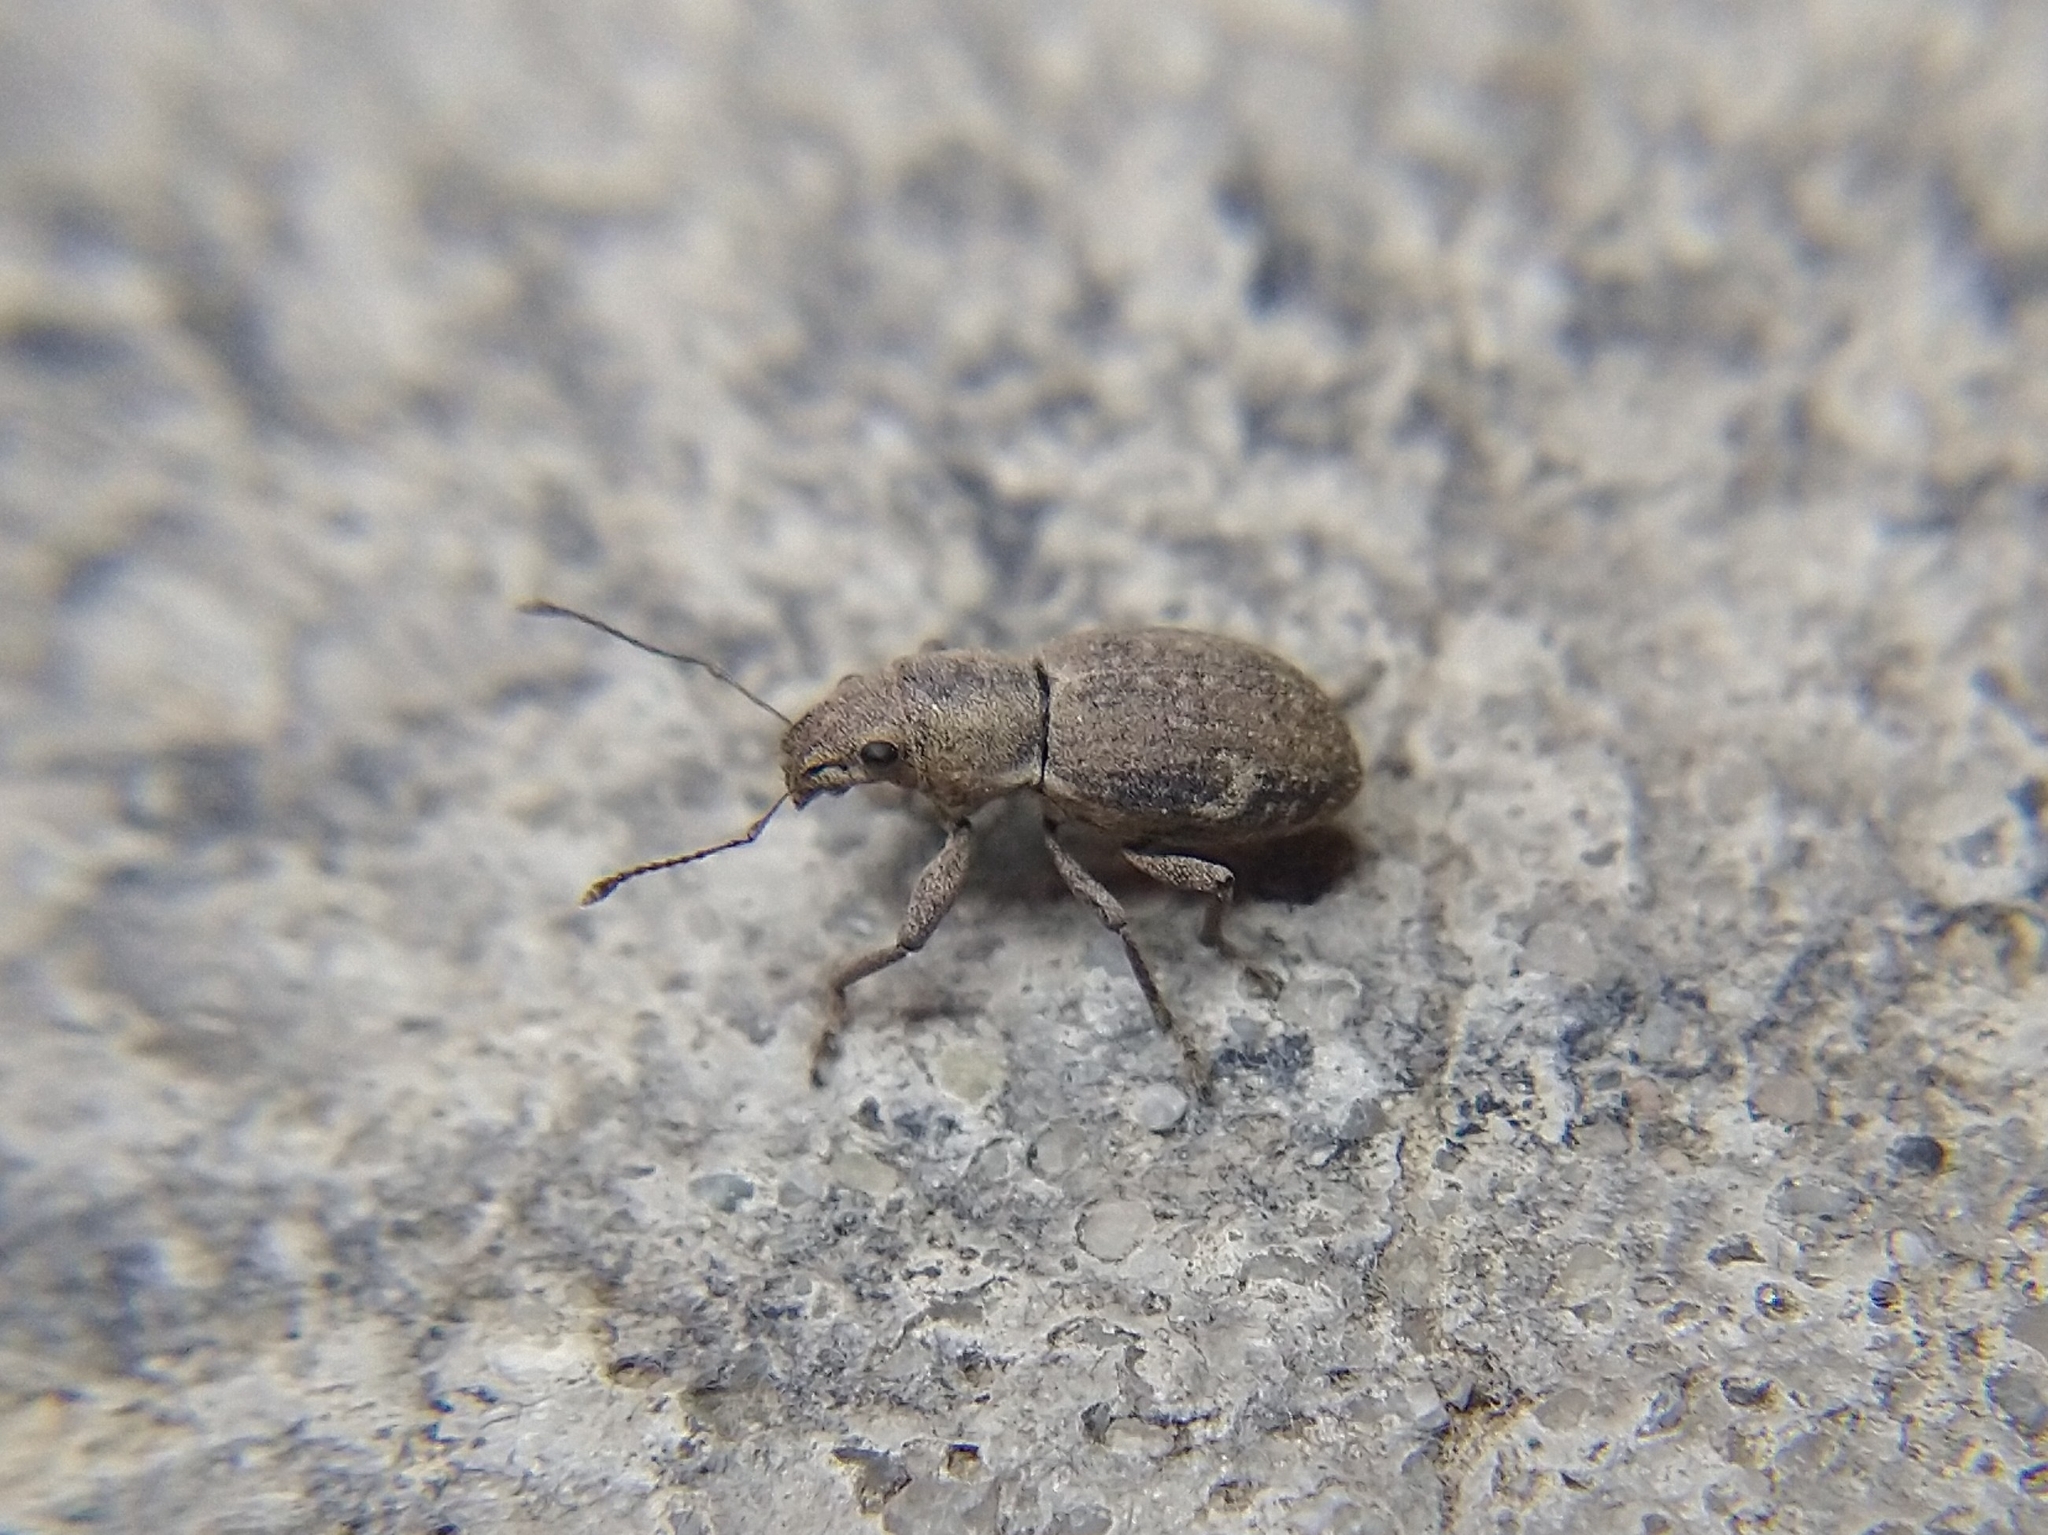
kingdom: Animalia
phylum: Arthropoda
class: Insecta
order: Coleoptera
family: Curculionidae
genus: Naupactus
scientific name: Naupactus cervinus
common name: Fuller rose beetle
